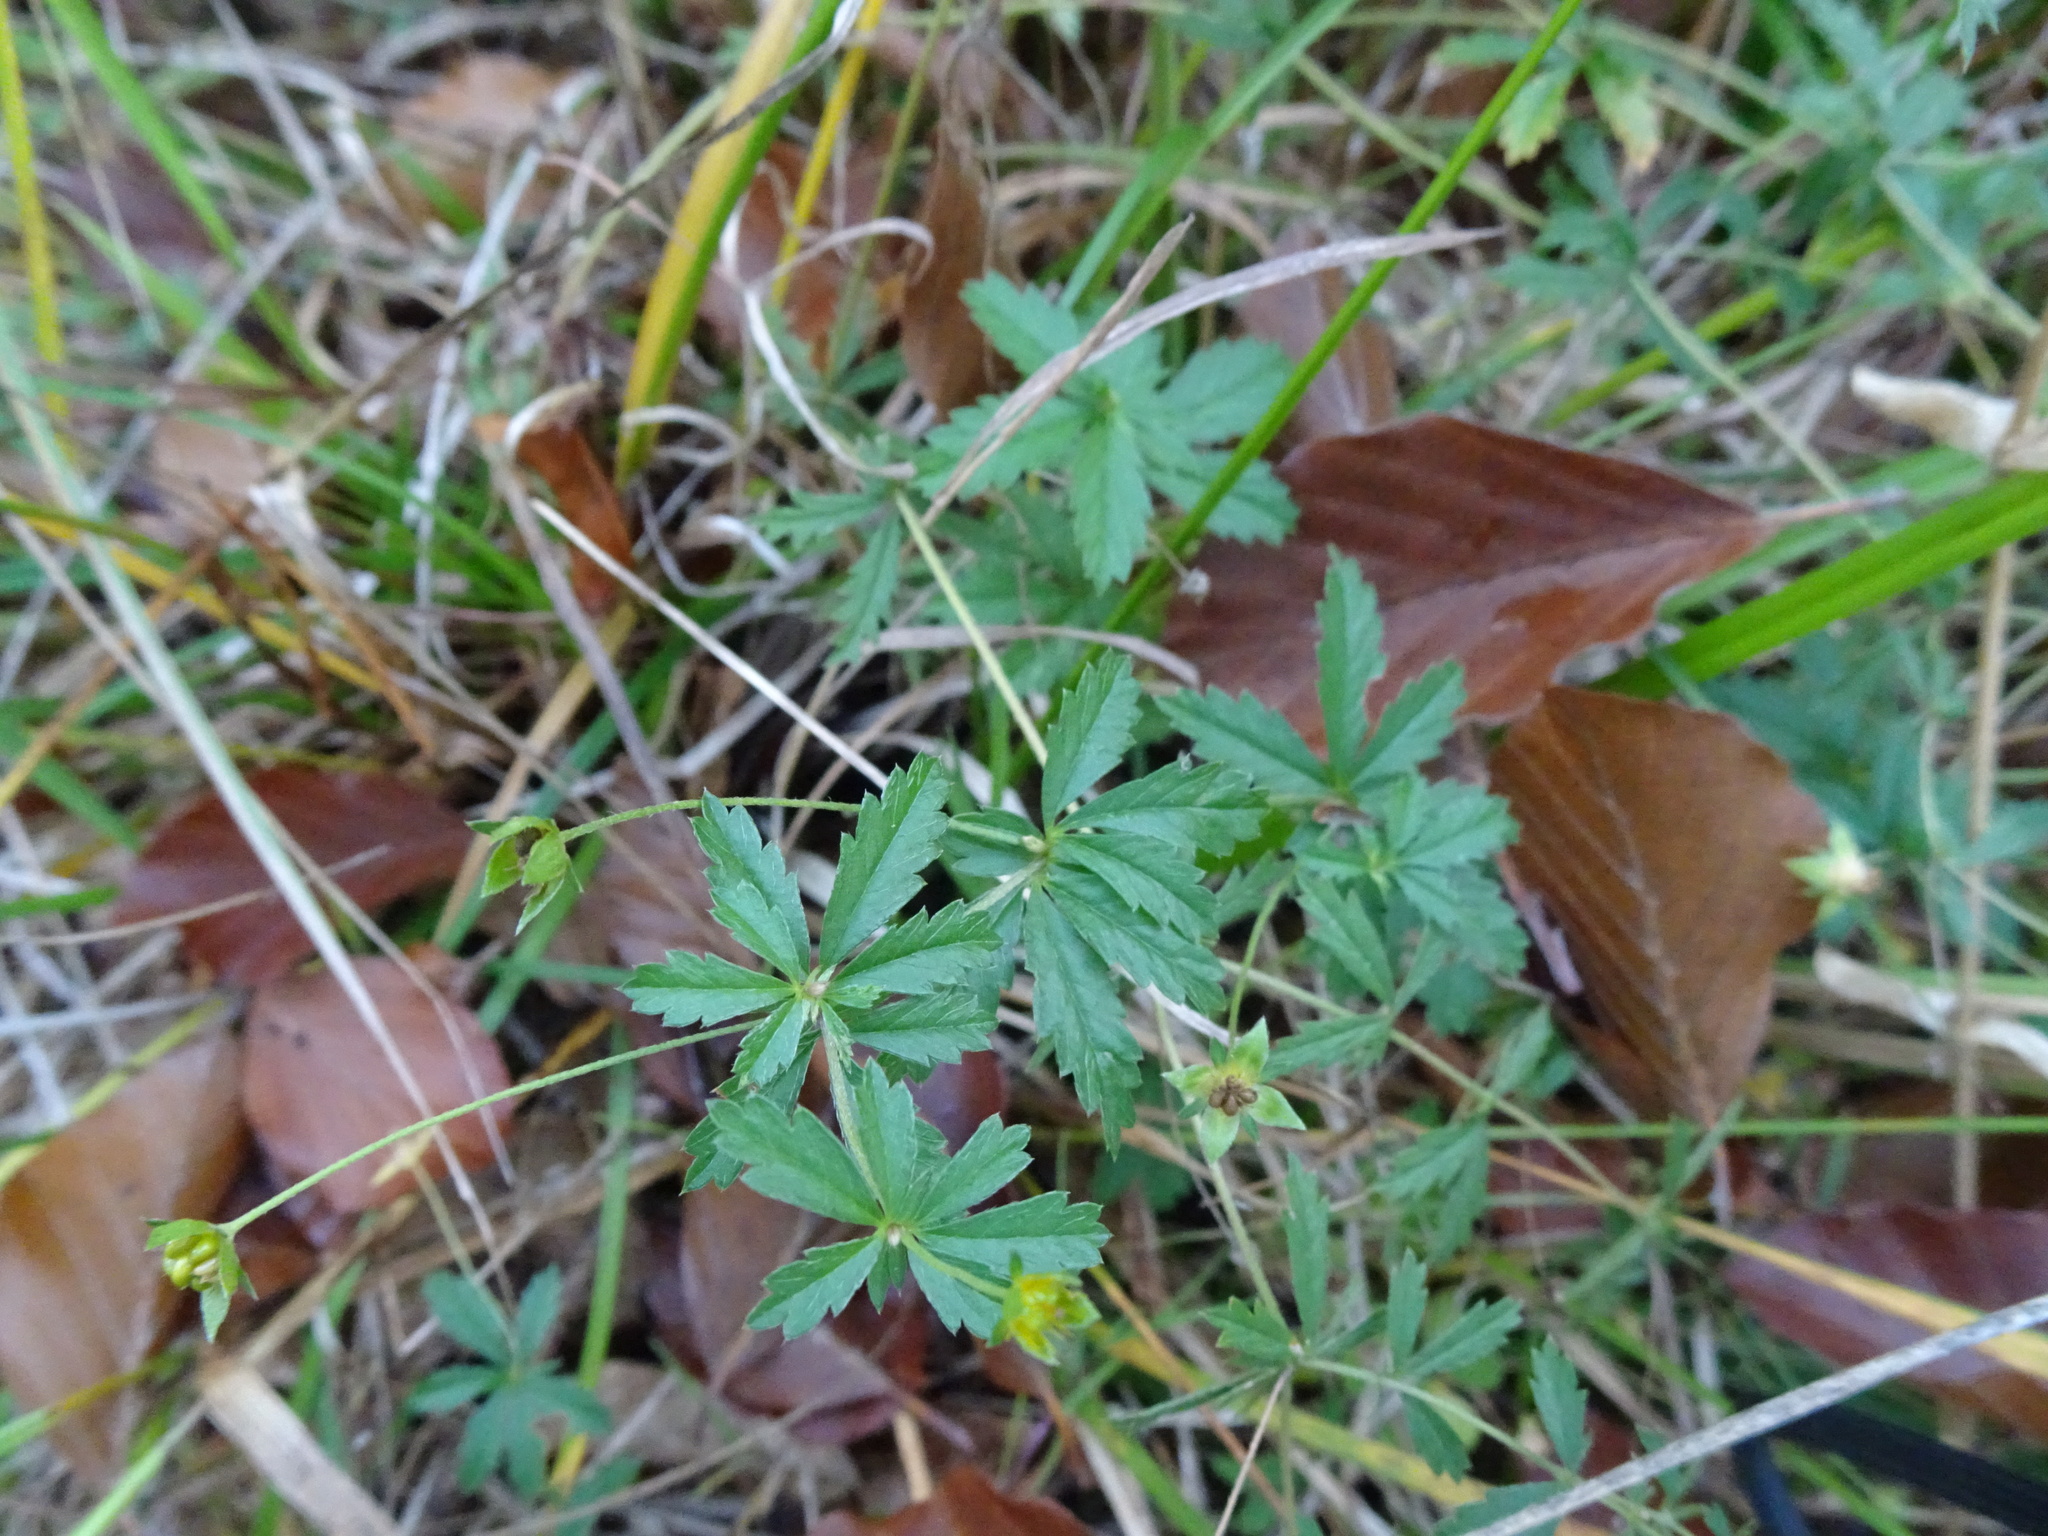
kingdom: Plantae
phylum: Tracheophyta
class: Magnoliopsida
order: Rosales
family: Rosaceae
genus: Potentilla
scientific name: Potentilla erecta
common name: Tormentil
